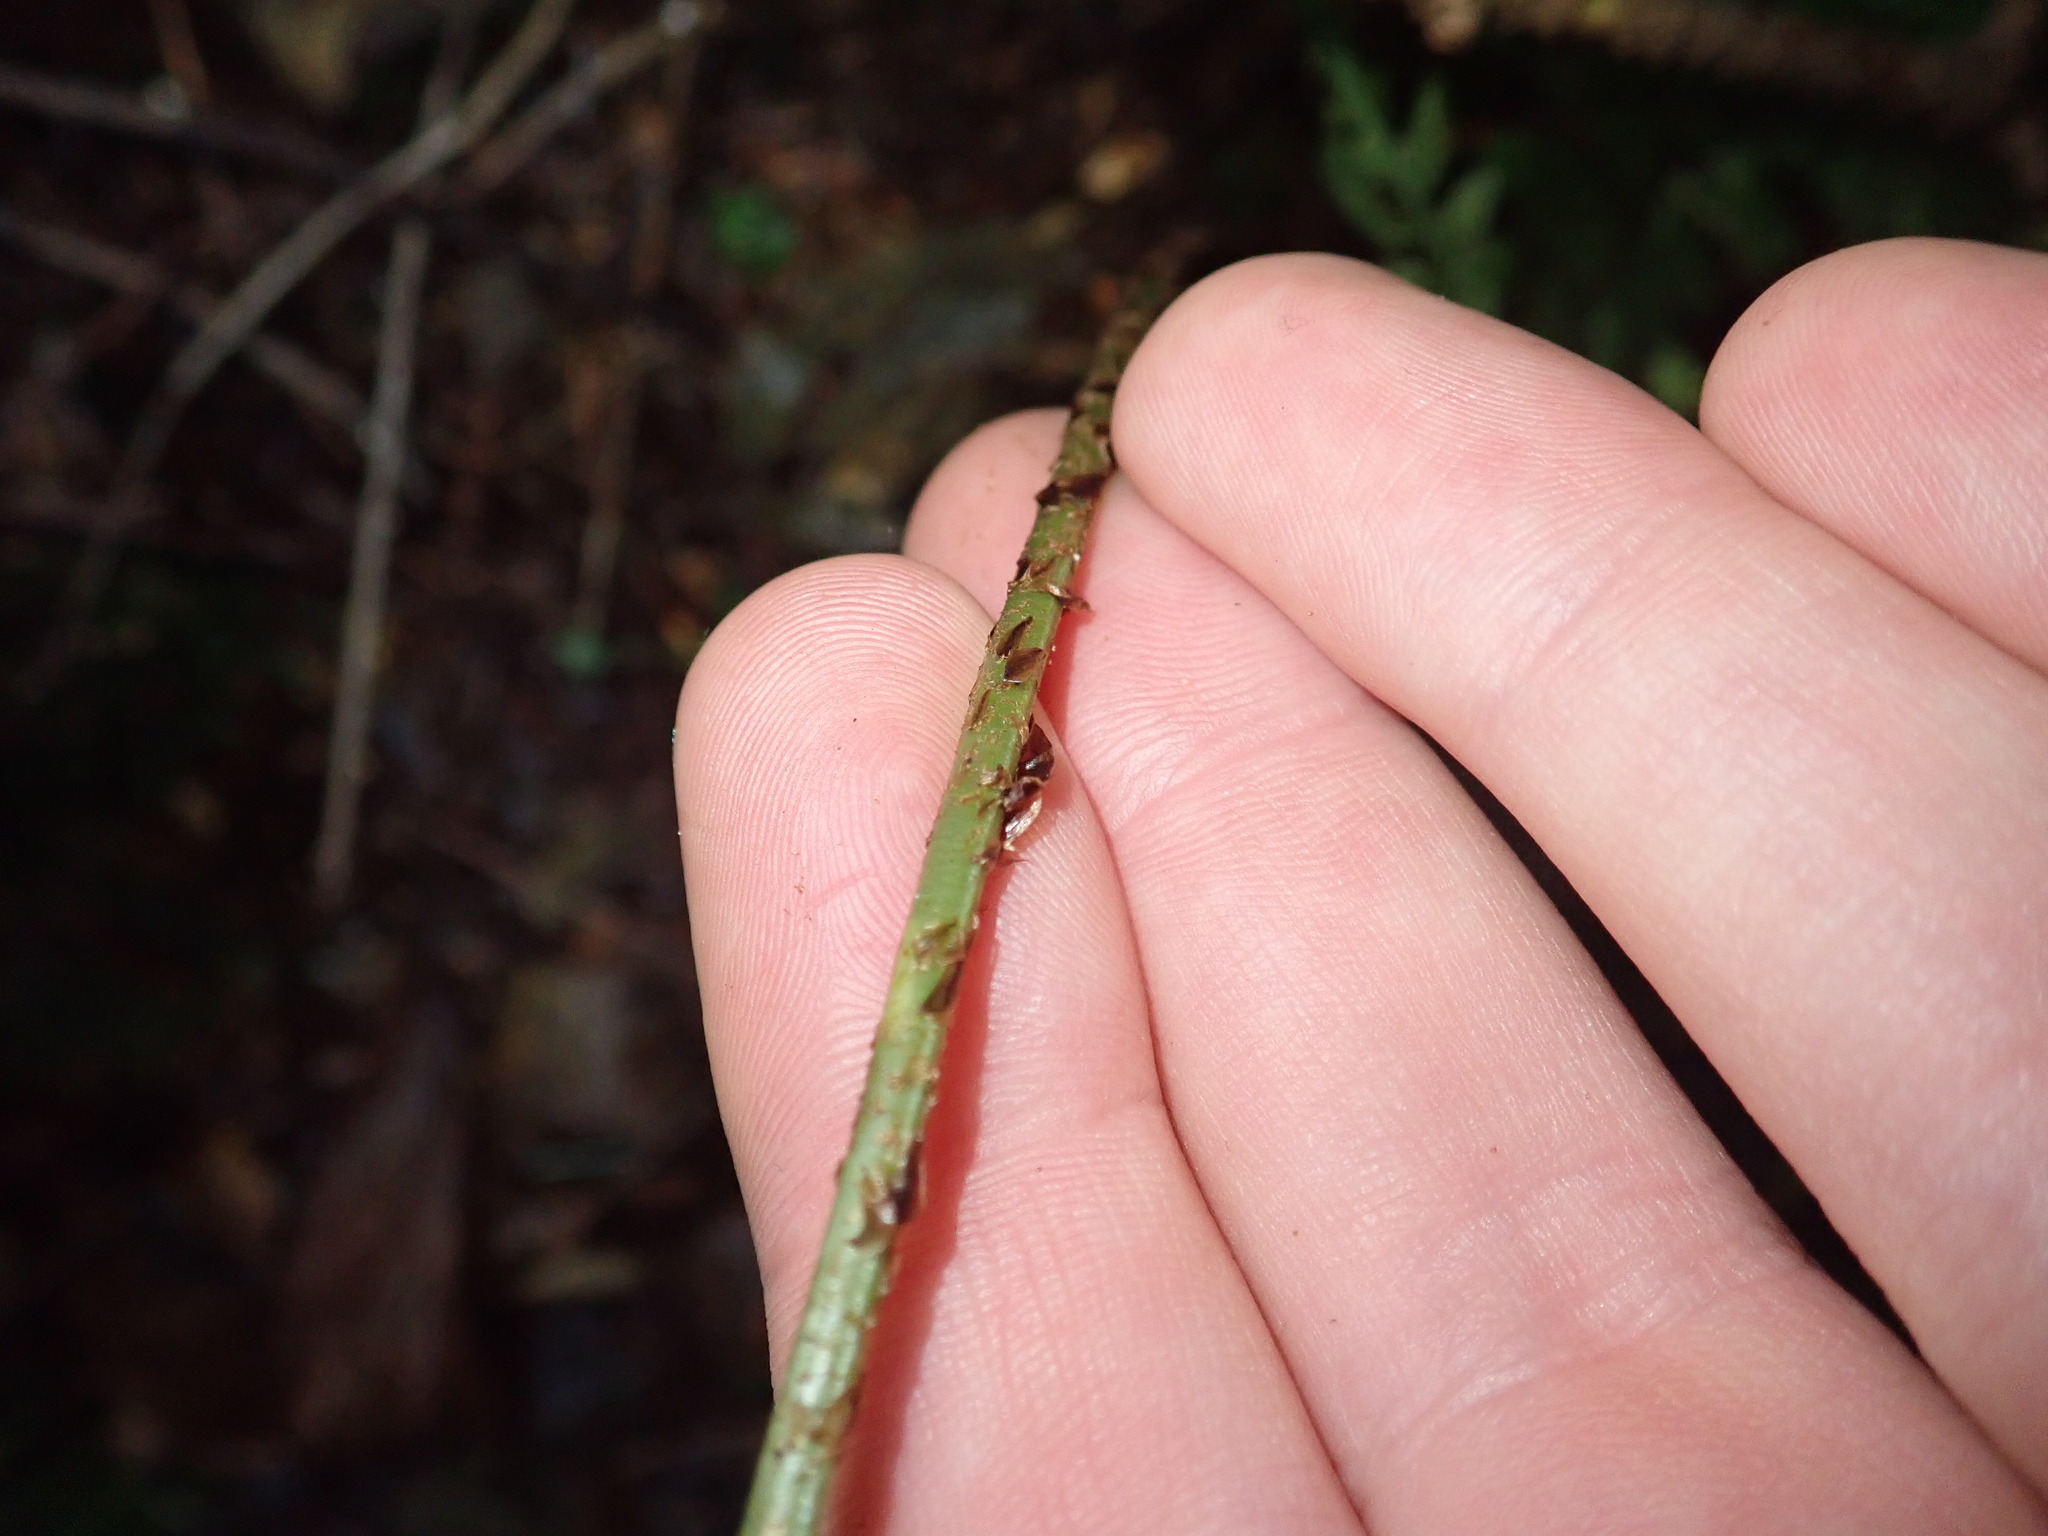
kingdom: Plantae
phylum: Tracheophyta
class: Polypodiopsida
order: Polypodiales
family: Dryopteridaceae
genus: Dryopteris
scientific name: Dryopteris dilatata
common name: Broad buckler-fern
